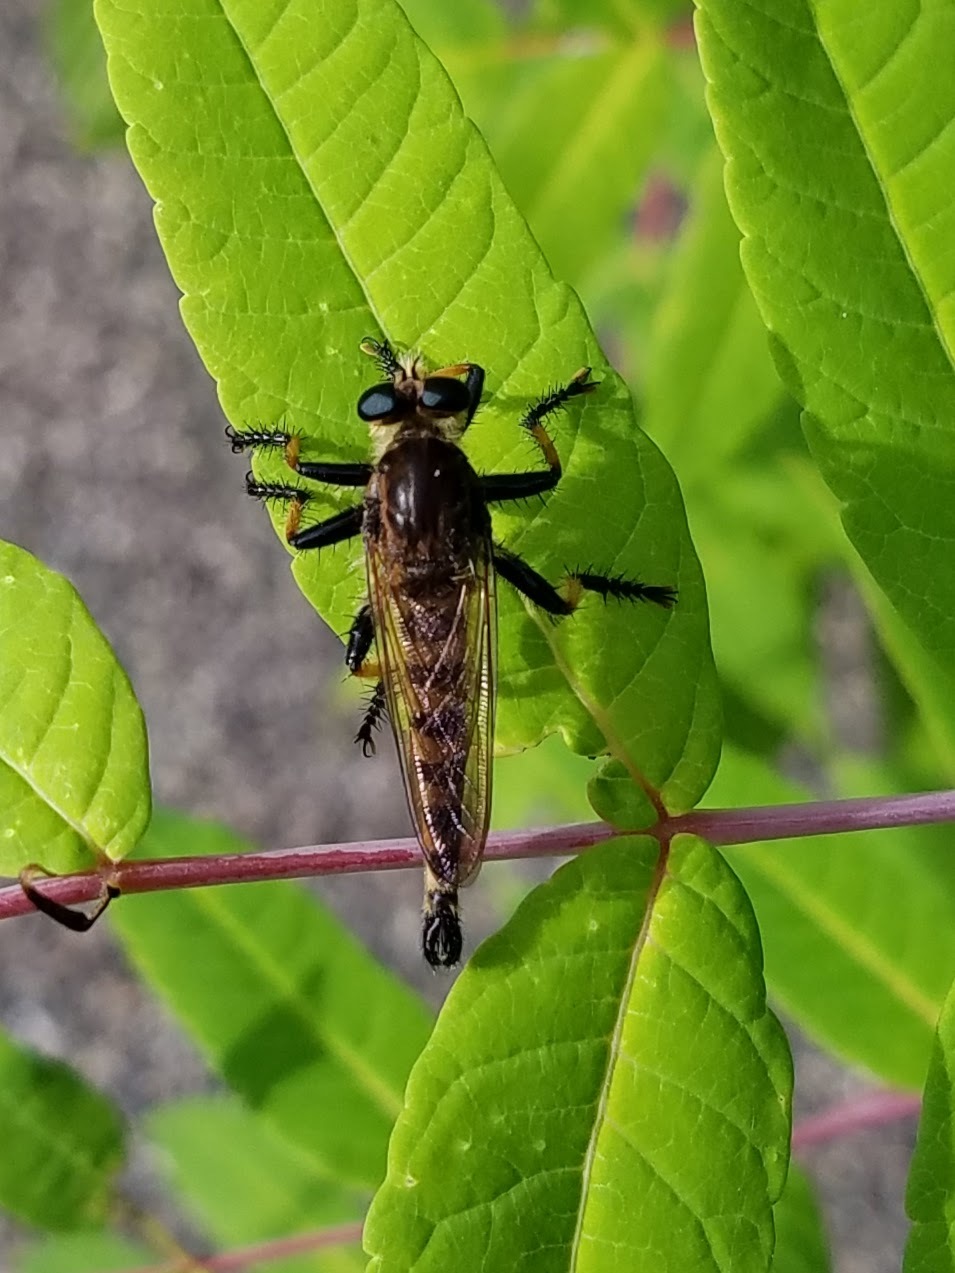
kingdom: Animalia
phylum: Arthropoda
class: Insecta
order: Diptera
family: Asilidae
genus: Promachus
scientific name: Promachus rufipes
